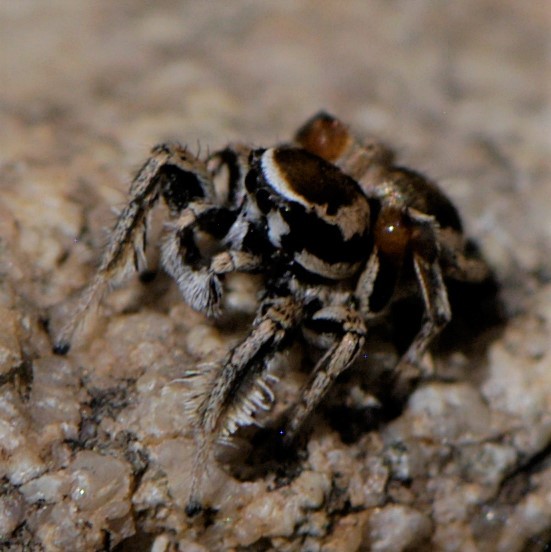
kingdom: Animalia
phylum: Arthropoda
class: Arachnida
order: Araneae
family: Salticidae
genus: Habronattus
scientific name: Habronattus clypeatus
